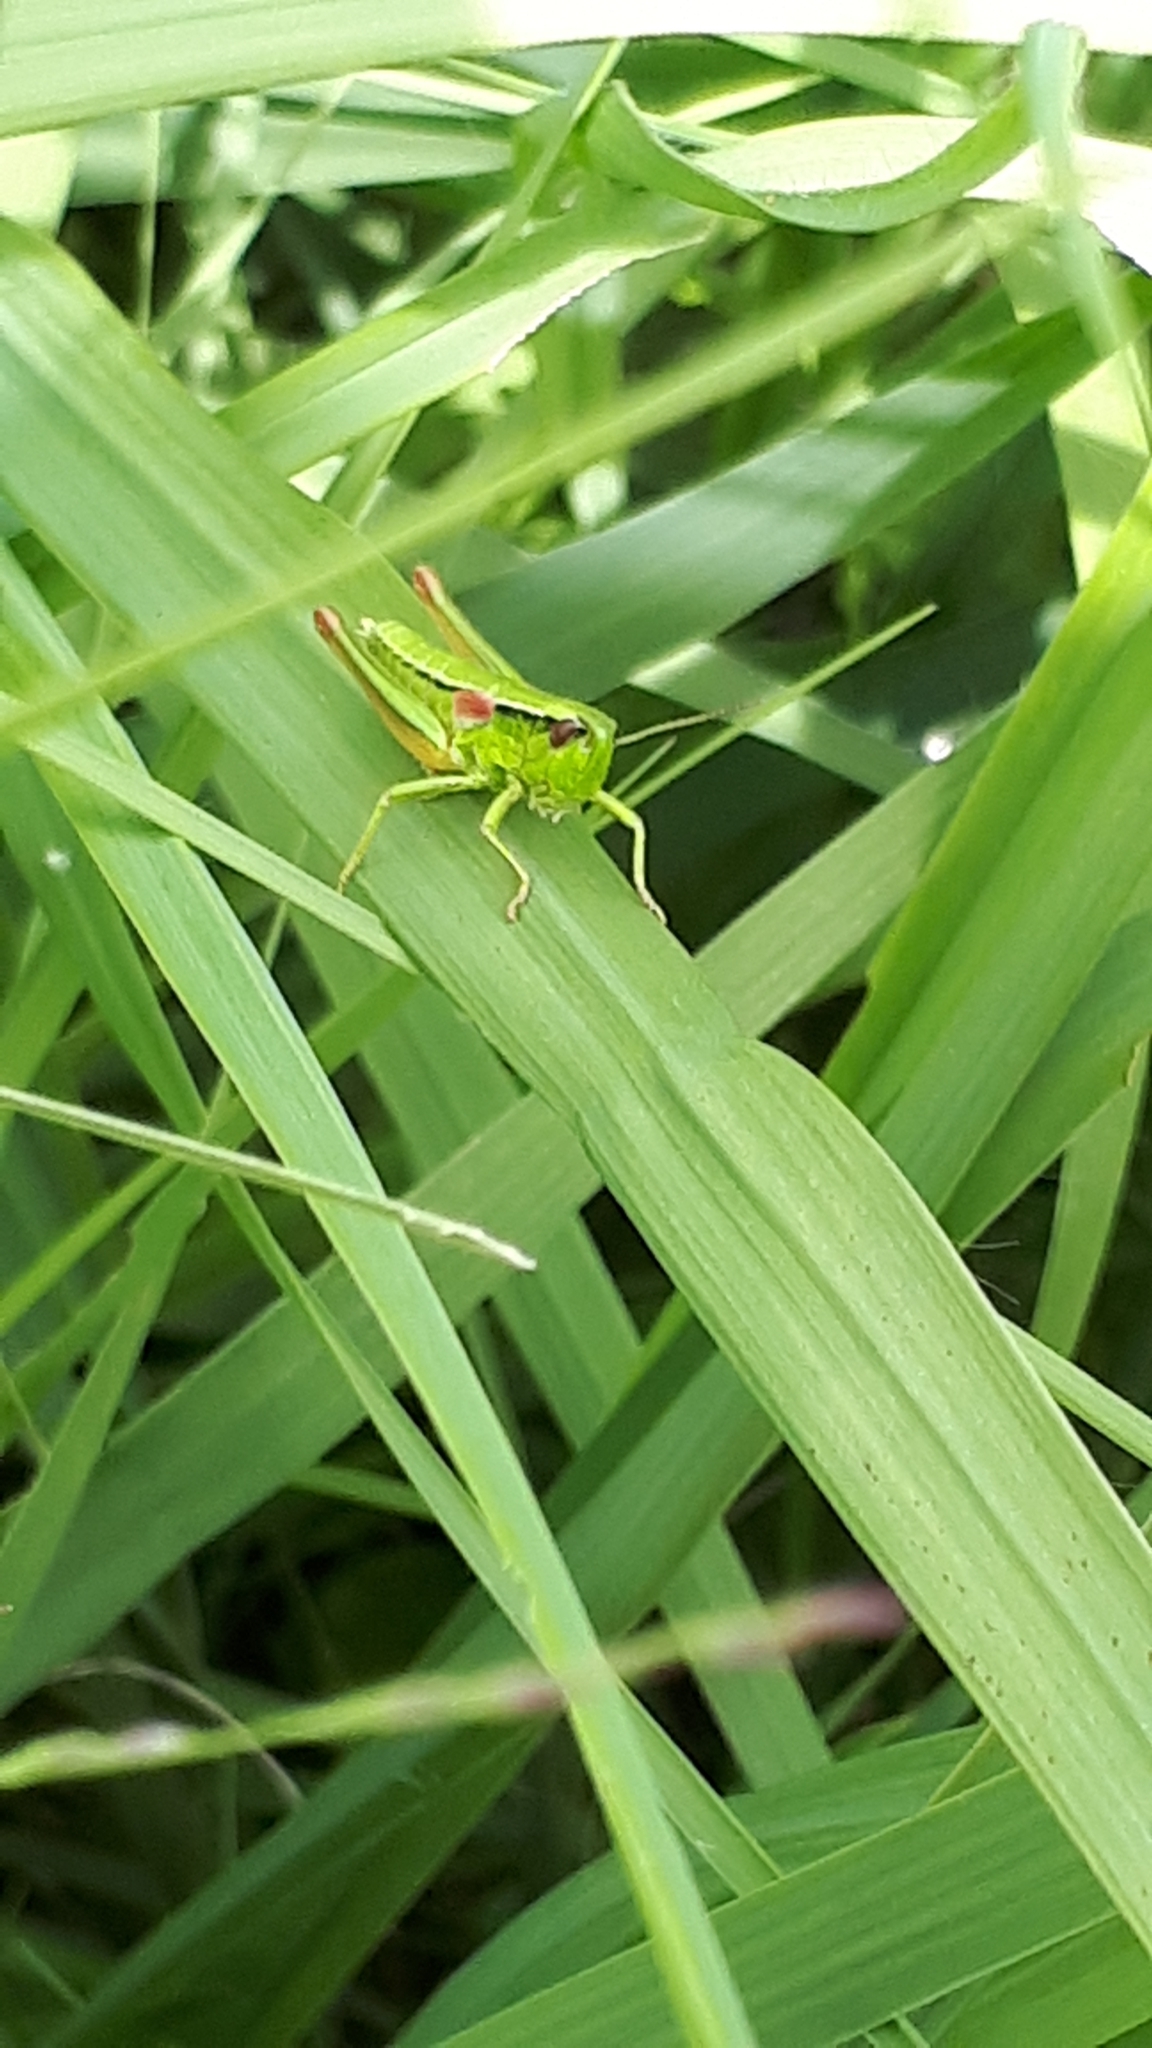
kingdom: Animalia
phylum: Arthropoda
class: Insecta
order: Orthoptera
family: Acrididae
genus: Euthystira
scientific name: Euthystira brachyptera
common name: Small gold grasshopper
